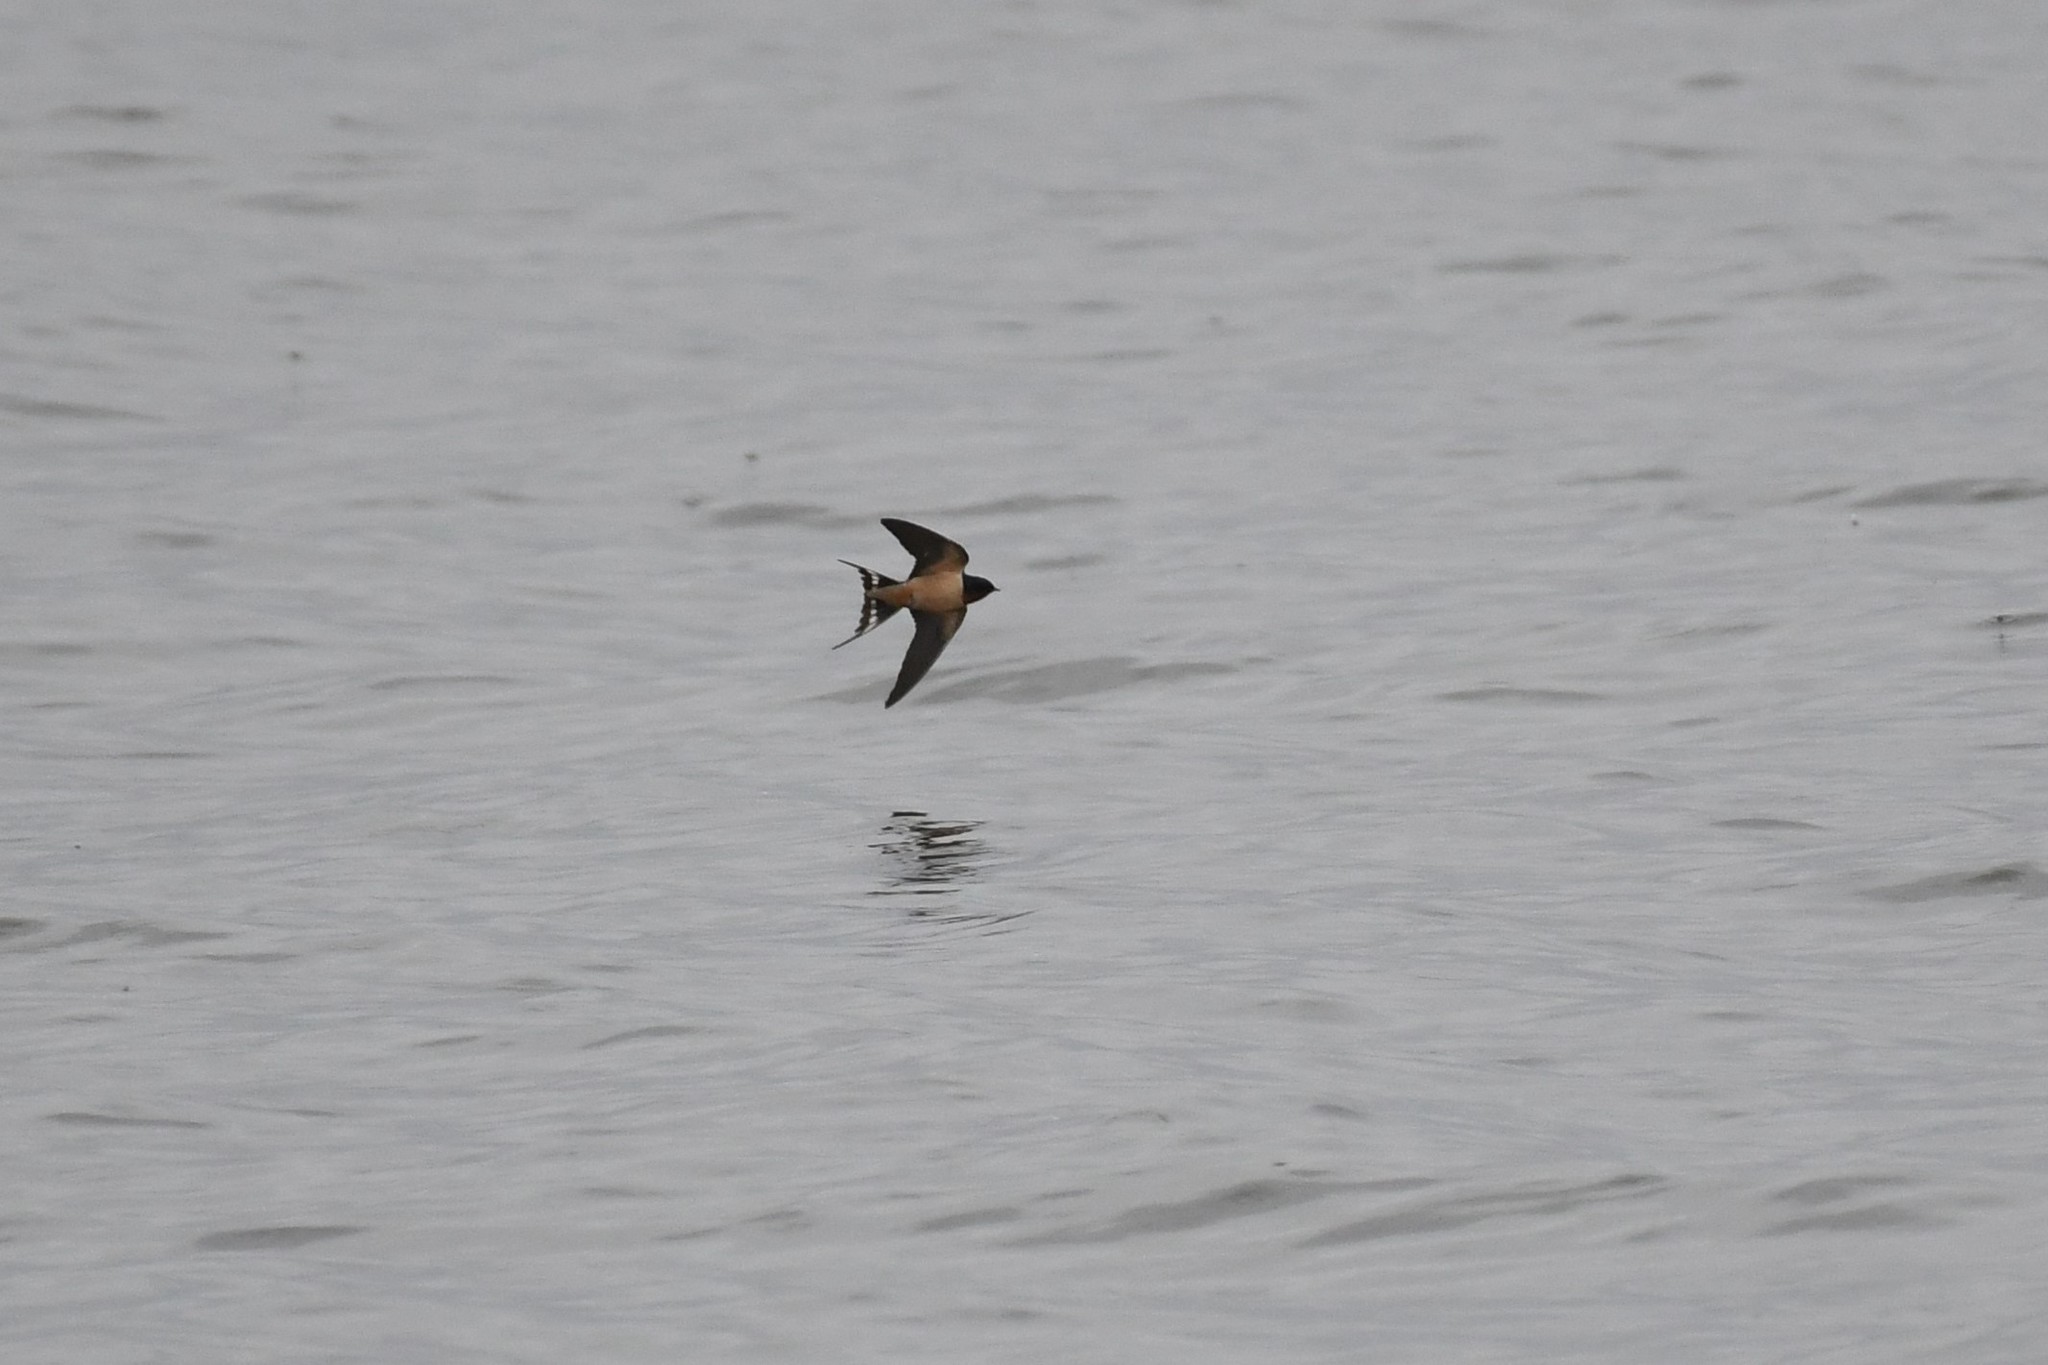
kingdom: Animalia
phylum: Chordata
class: Aves
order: Passeriformes
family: Hirundinidae
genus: Hirundo
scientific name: Hirundo rustica
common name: Barn swallow
